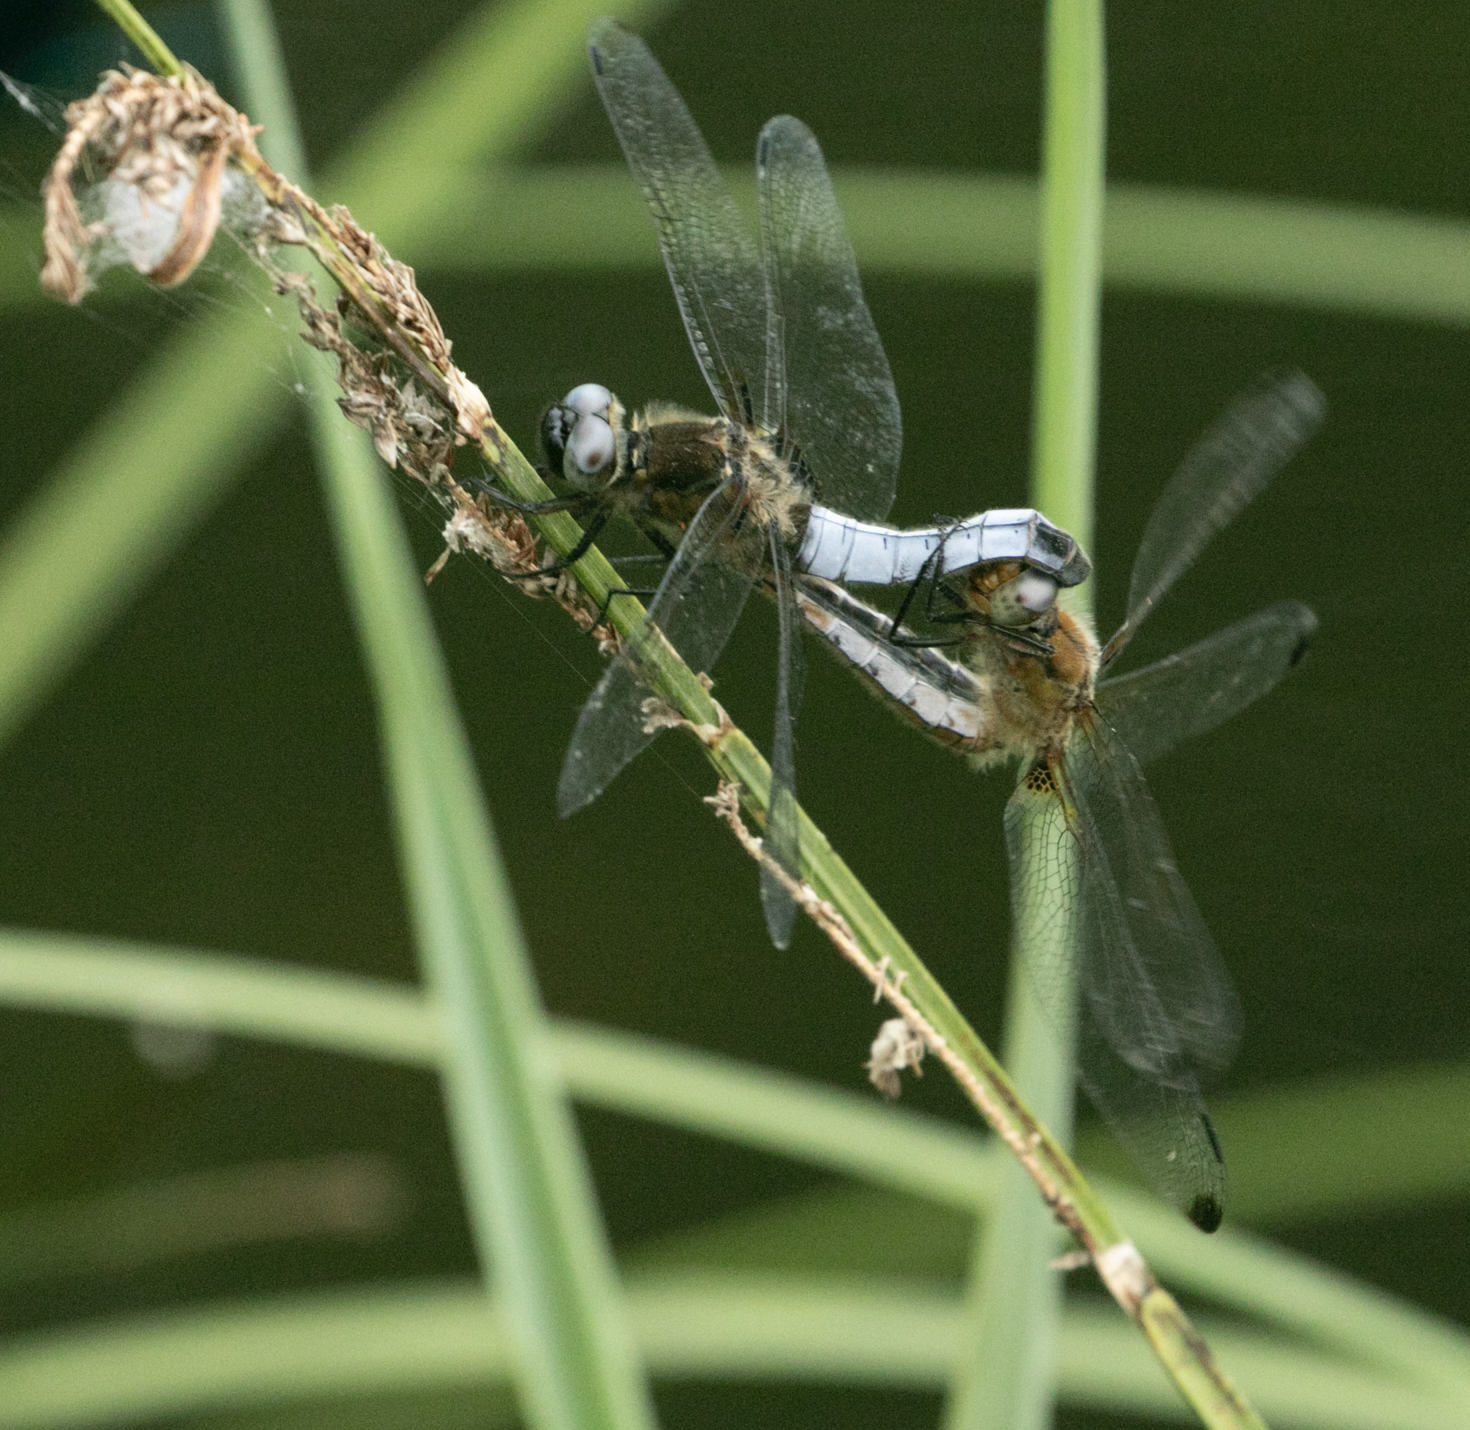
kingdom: Animalia
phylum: Arthropoda
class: Insecta
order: Odonata
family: Libellulidae
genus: Libellula
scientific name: Libellula fulva
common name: Blue chaser
